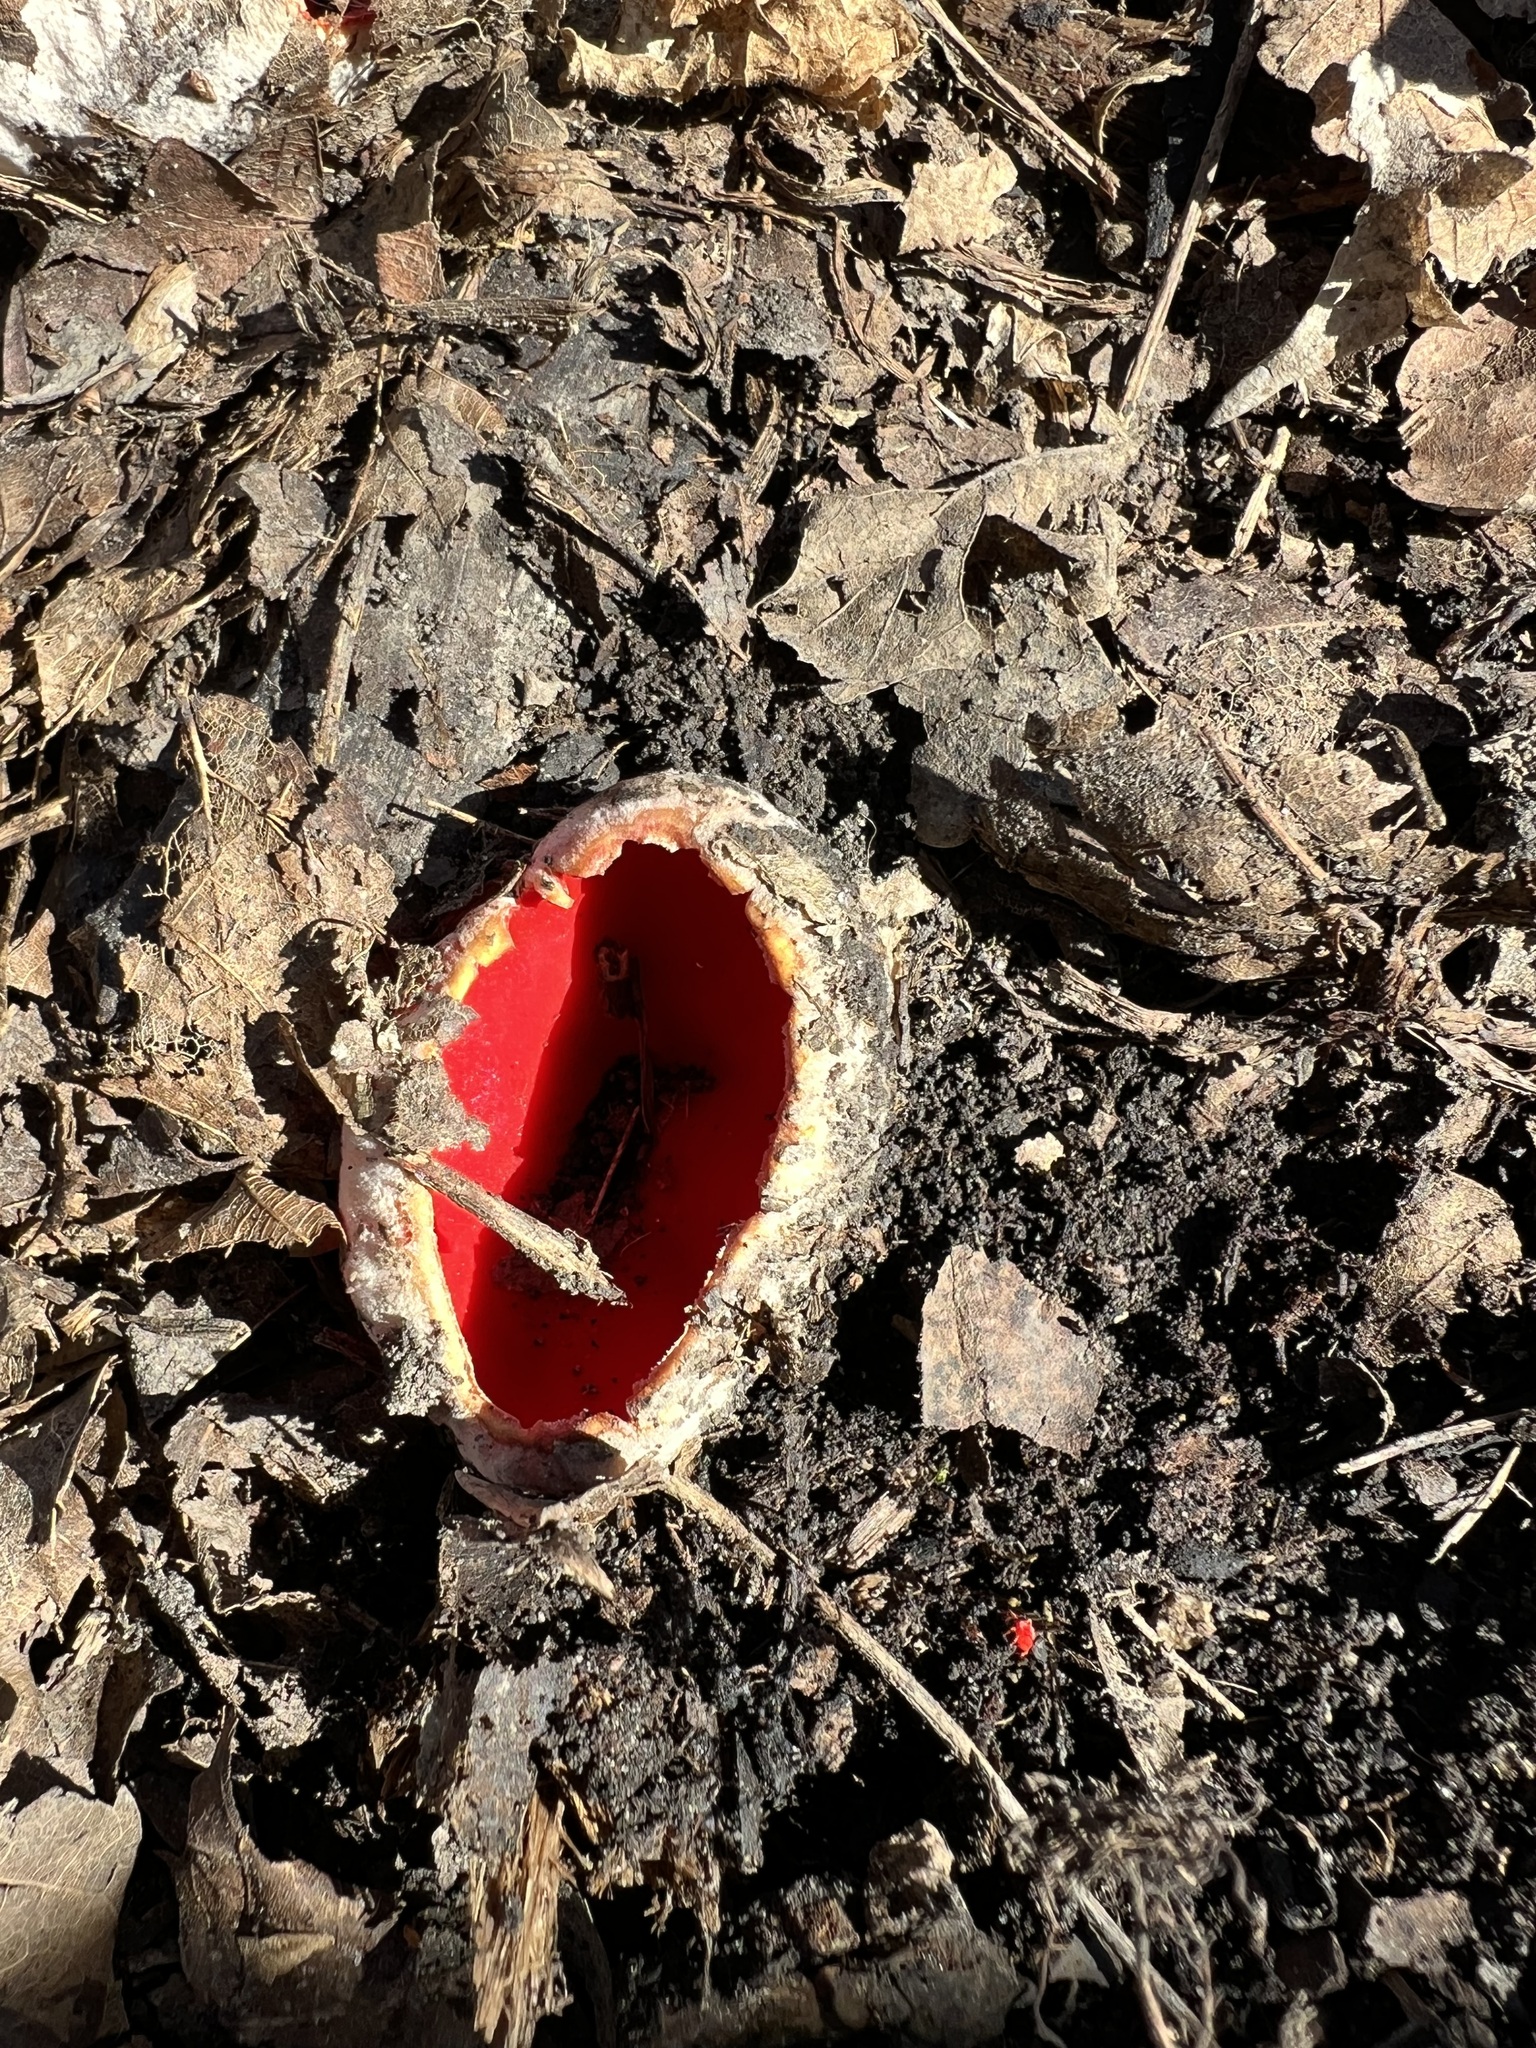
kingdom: Fungi
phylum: Ascomycota
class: Pezizomycetes
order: Pezizales
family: Sarcoscyphaceae
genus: Sarcoscypha
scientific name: Sarcoscypha austriaca
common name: Scarlet elfcup
